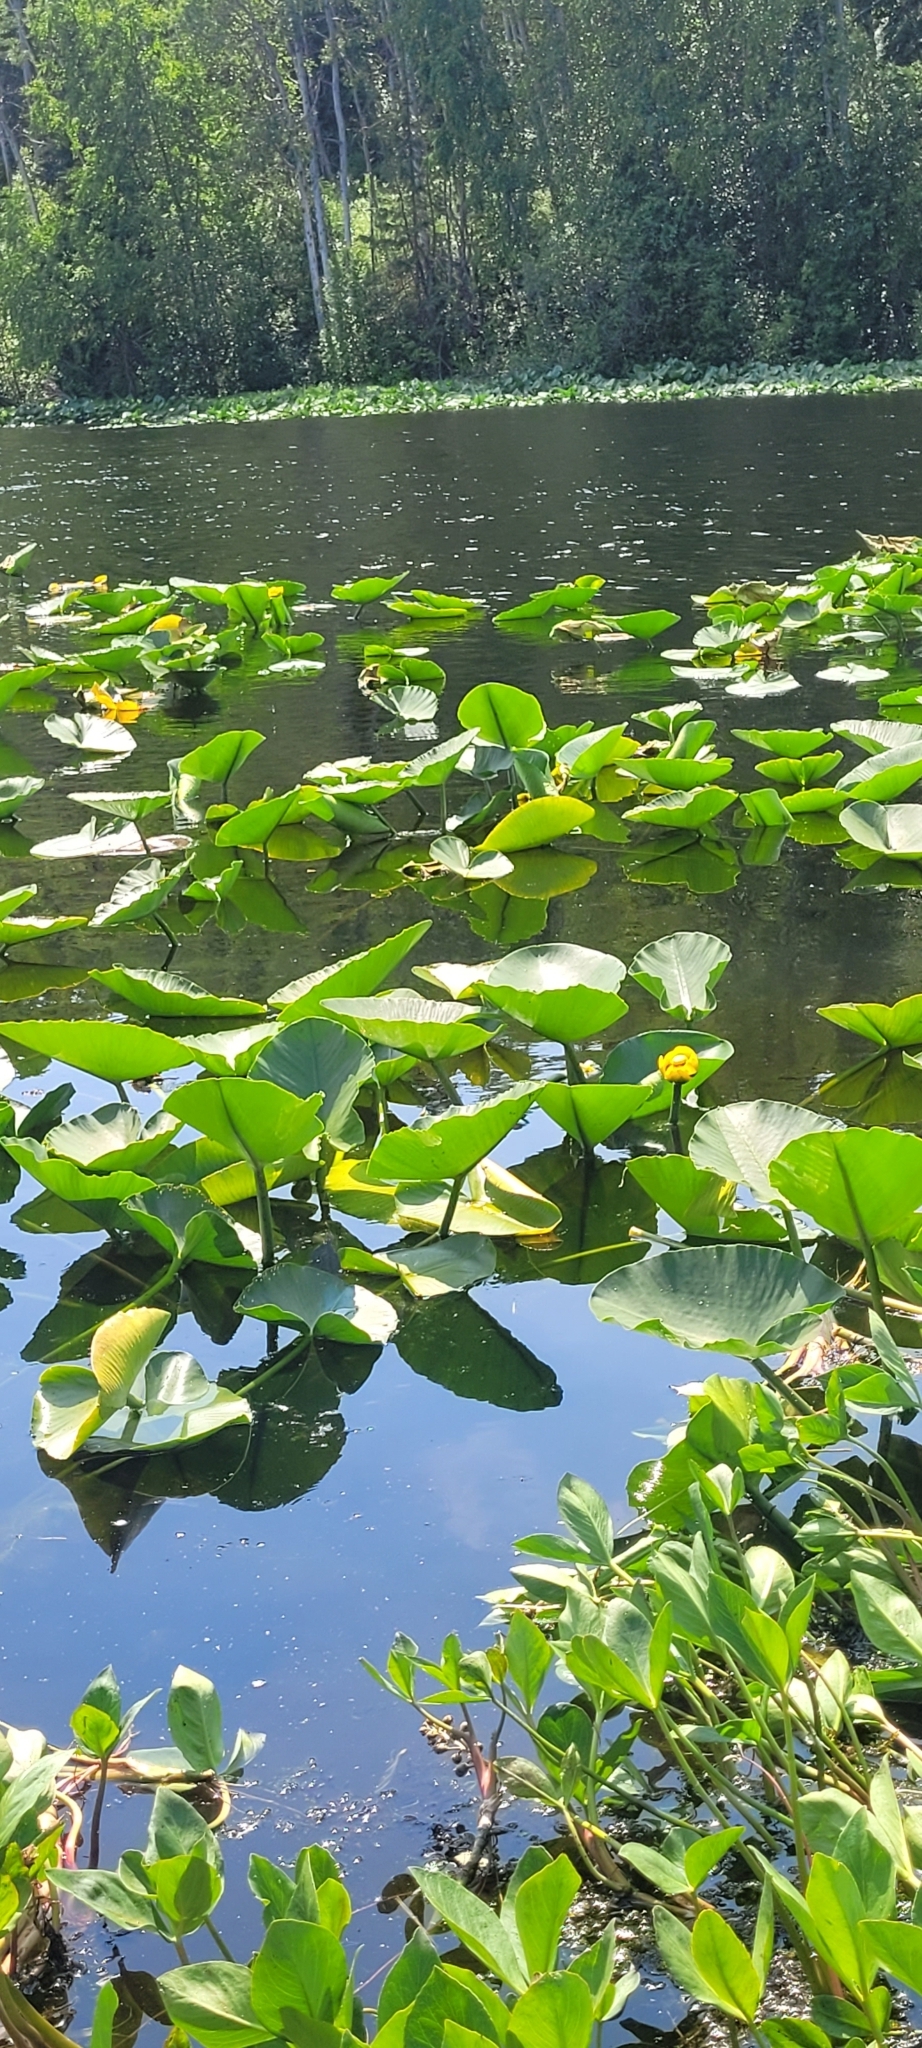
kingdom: Plantae
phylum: Tracheophyta
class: Magnoliopsida
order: Nymphaeales
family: Nymphaeaceae
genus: Nuphar
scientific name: Nuphar polysepala
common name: Rocky mountain cow-lily
